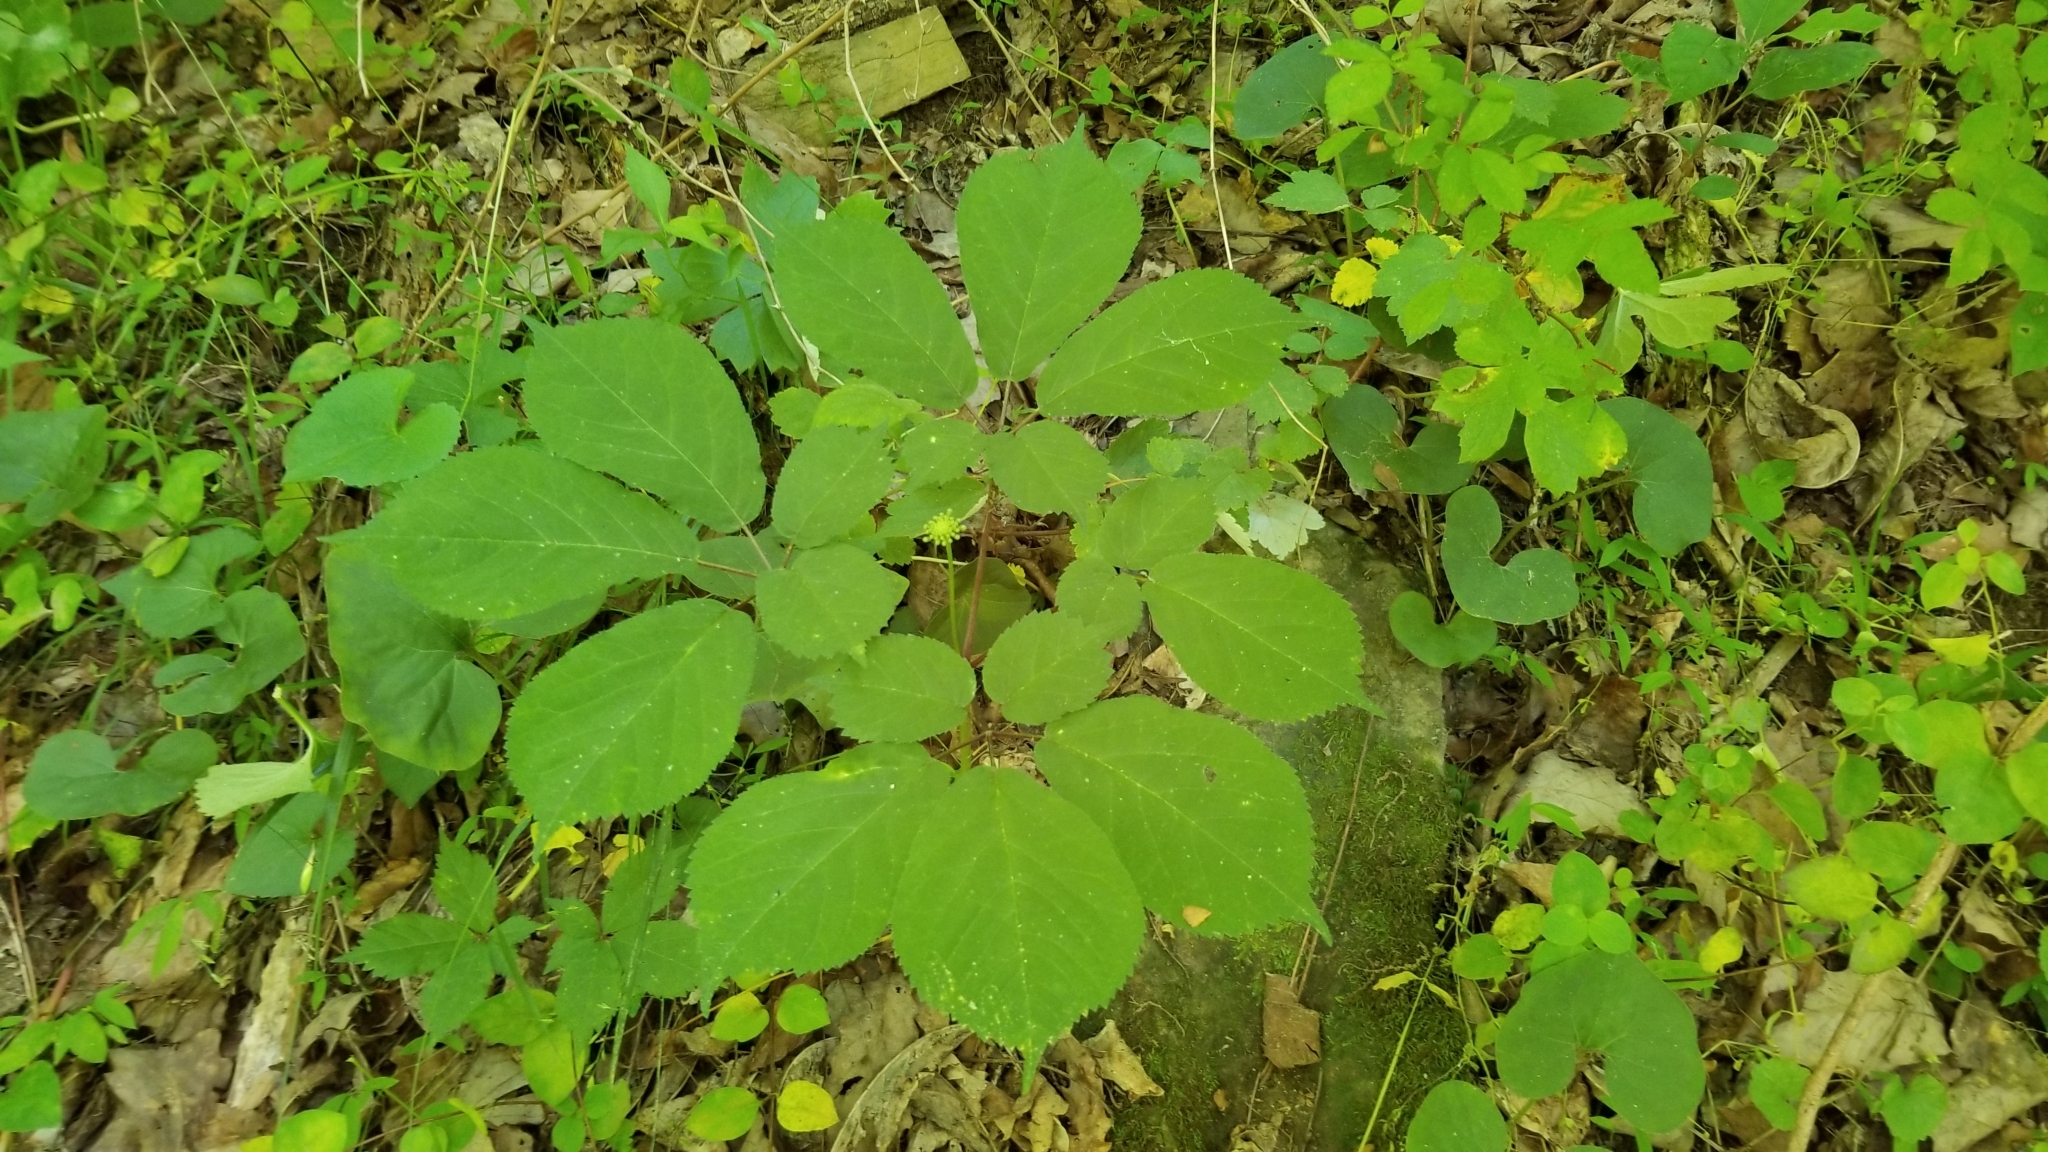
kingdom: Plantae
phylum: Tracheophyta
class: Magnoliopsida
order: Apiales
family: Araliaceae
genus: Panax
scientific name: Panax quinquefolius
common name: American ginseng
